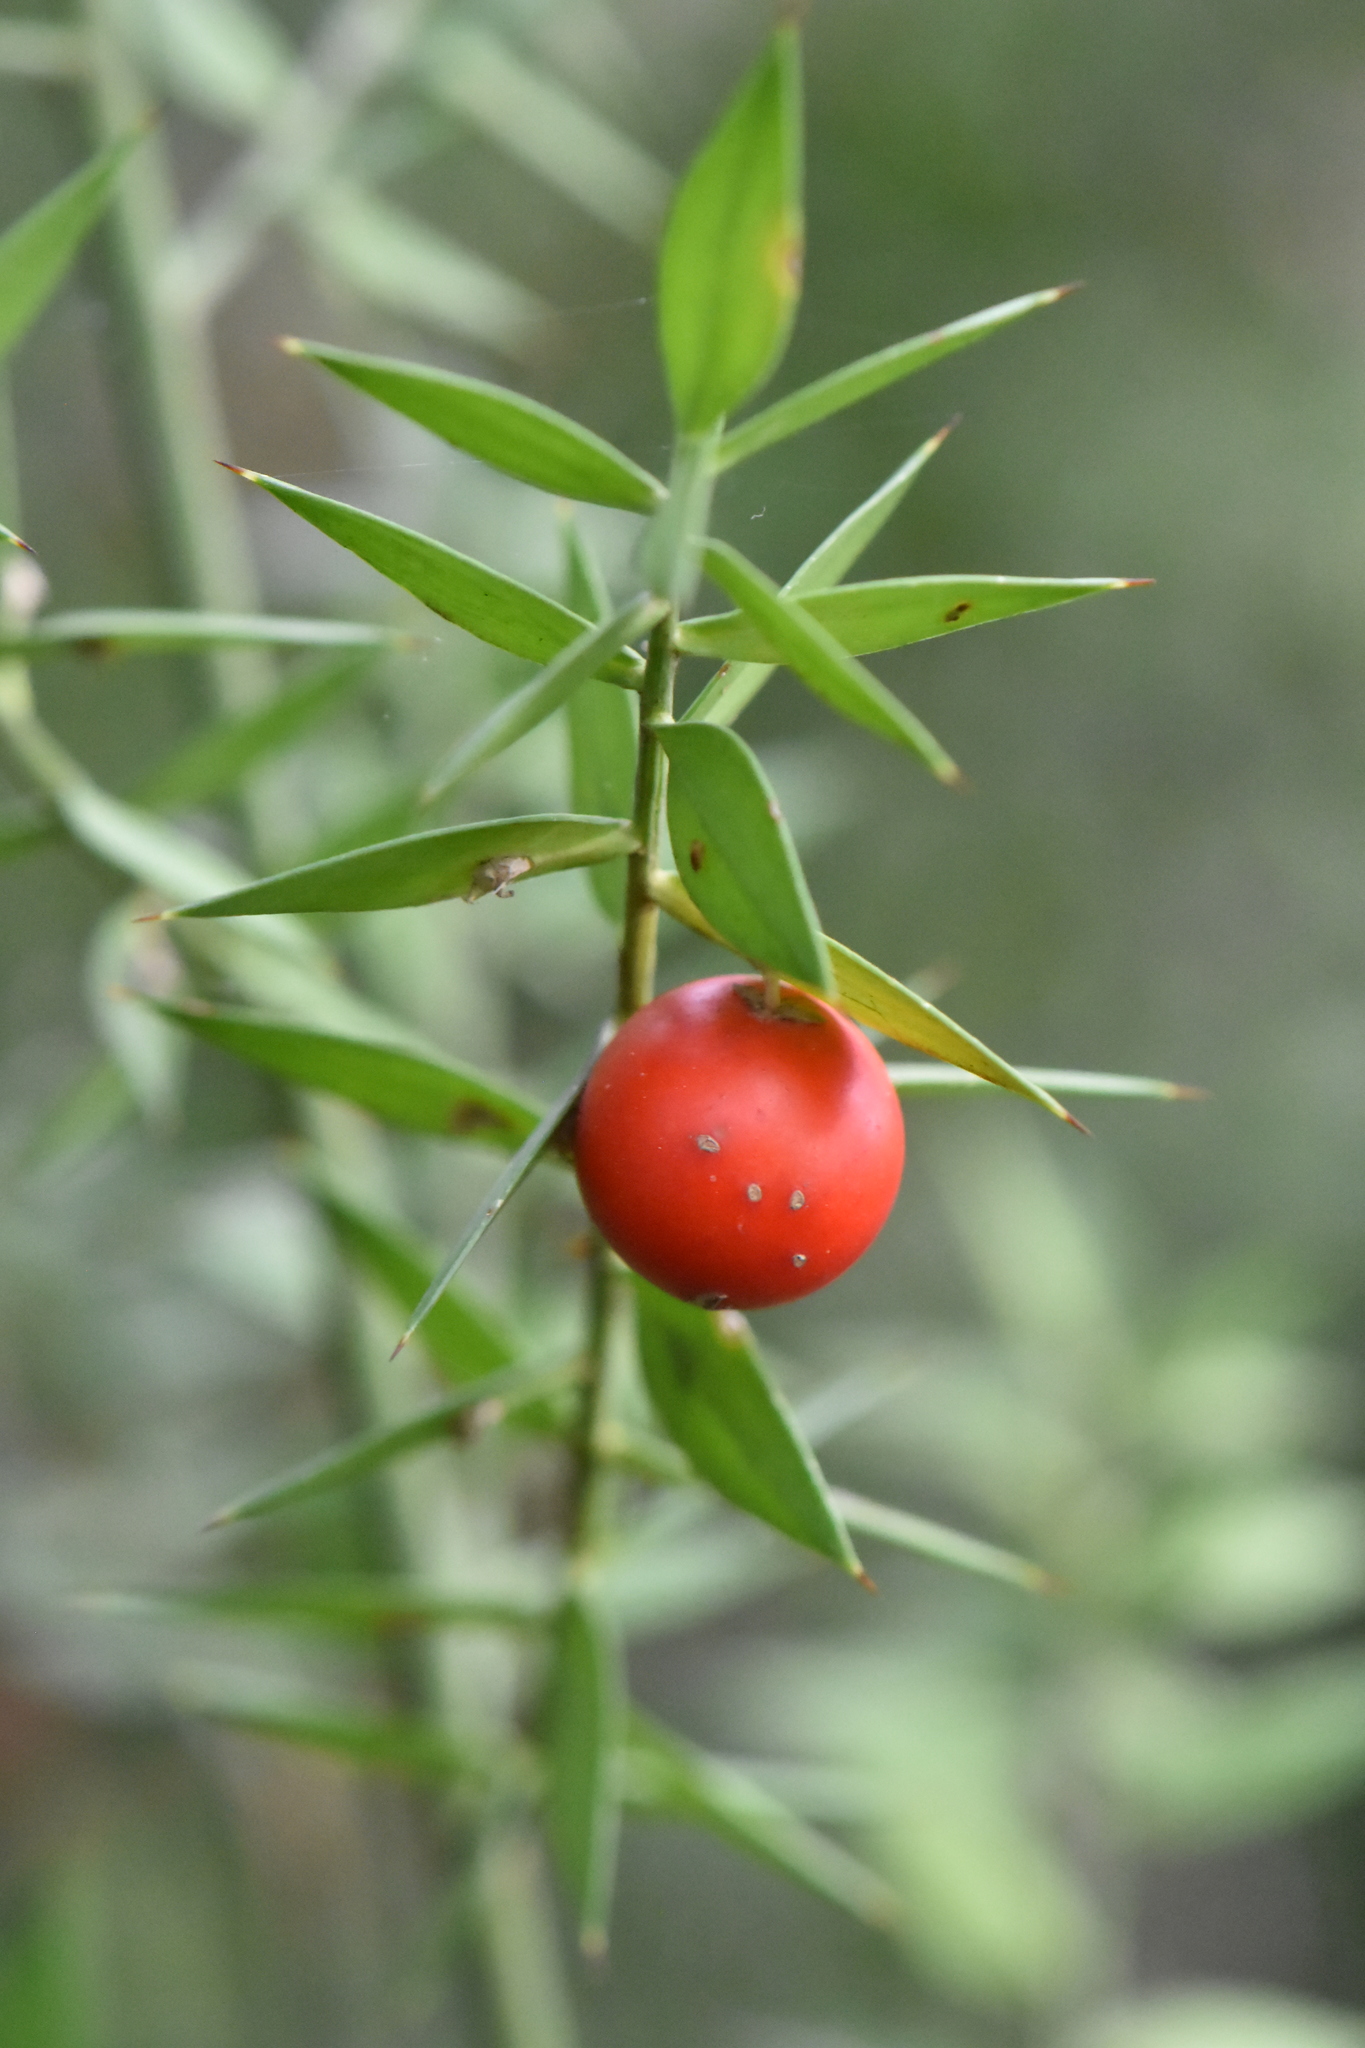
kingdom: Plantae
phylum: Tracheophyta
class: Liliopsida
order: Asparagales
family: Asparagaceae
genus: Ruscus
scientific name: Ruscus aculeatus
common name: Butcher's-broom
